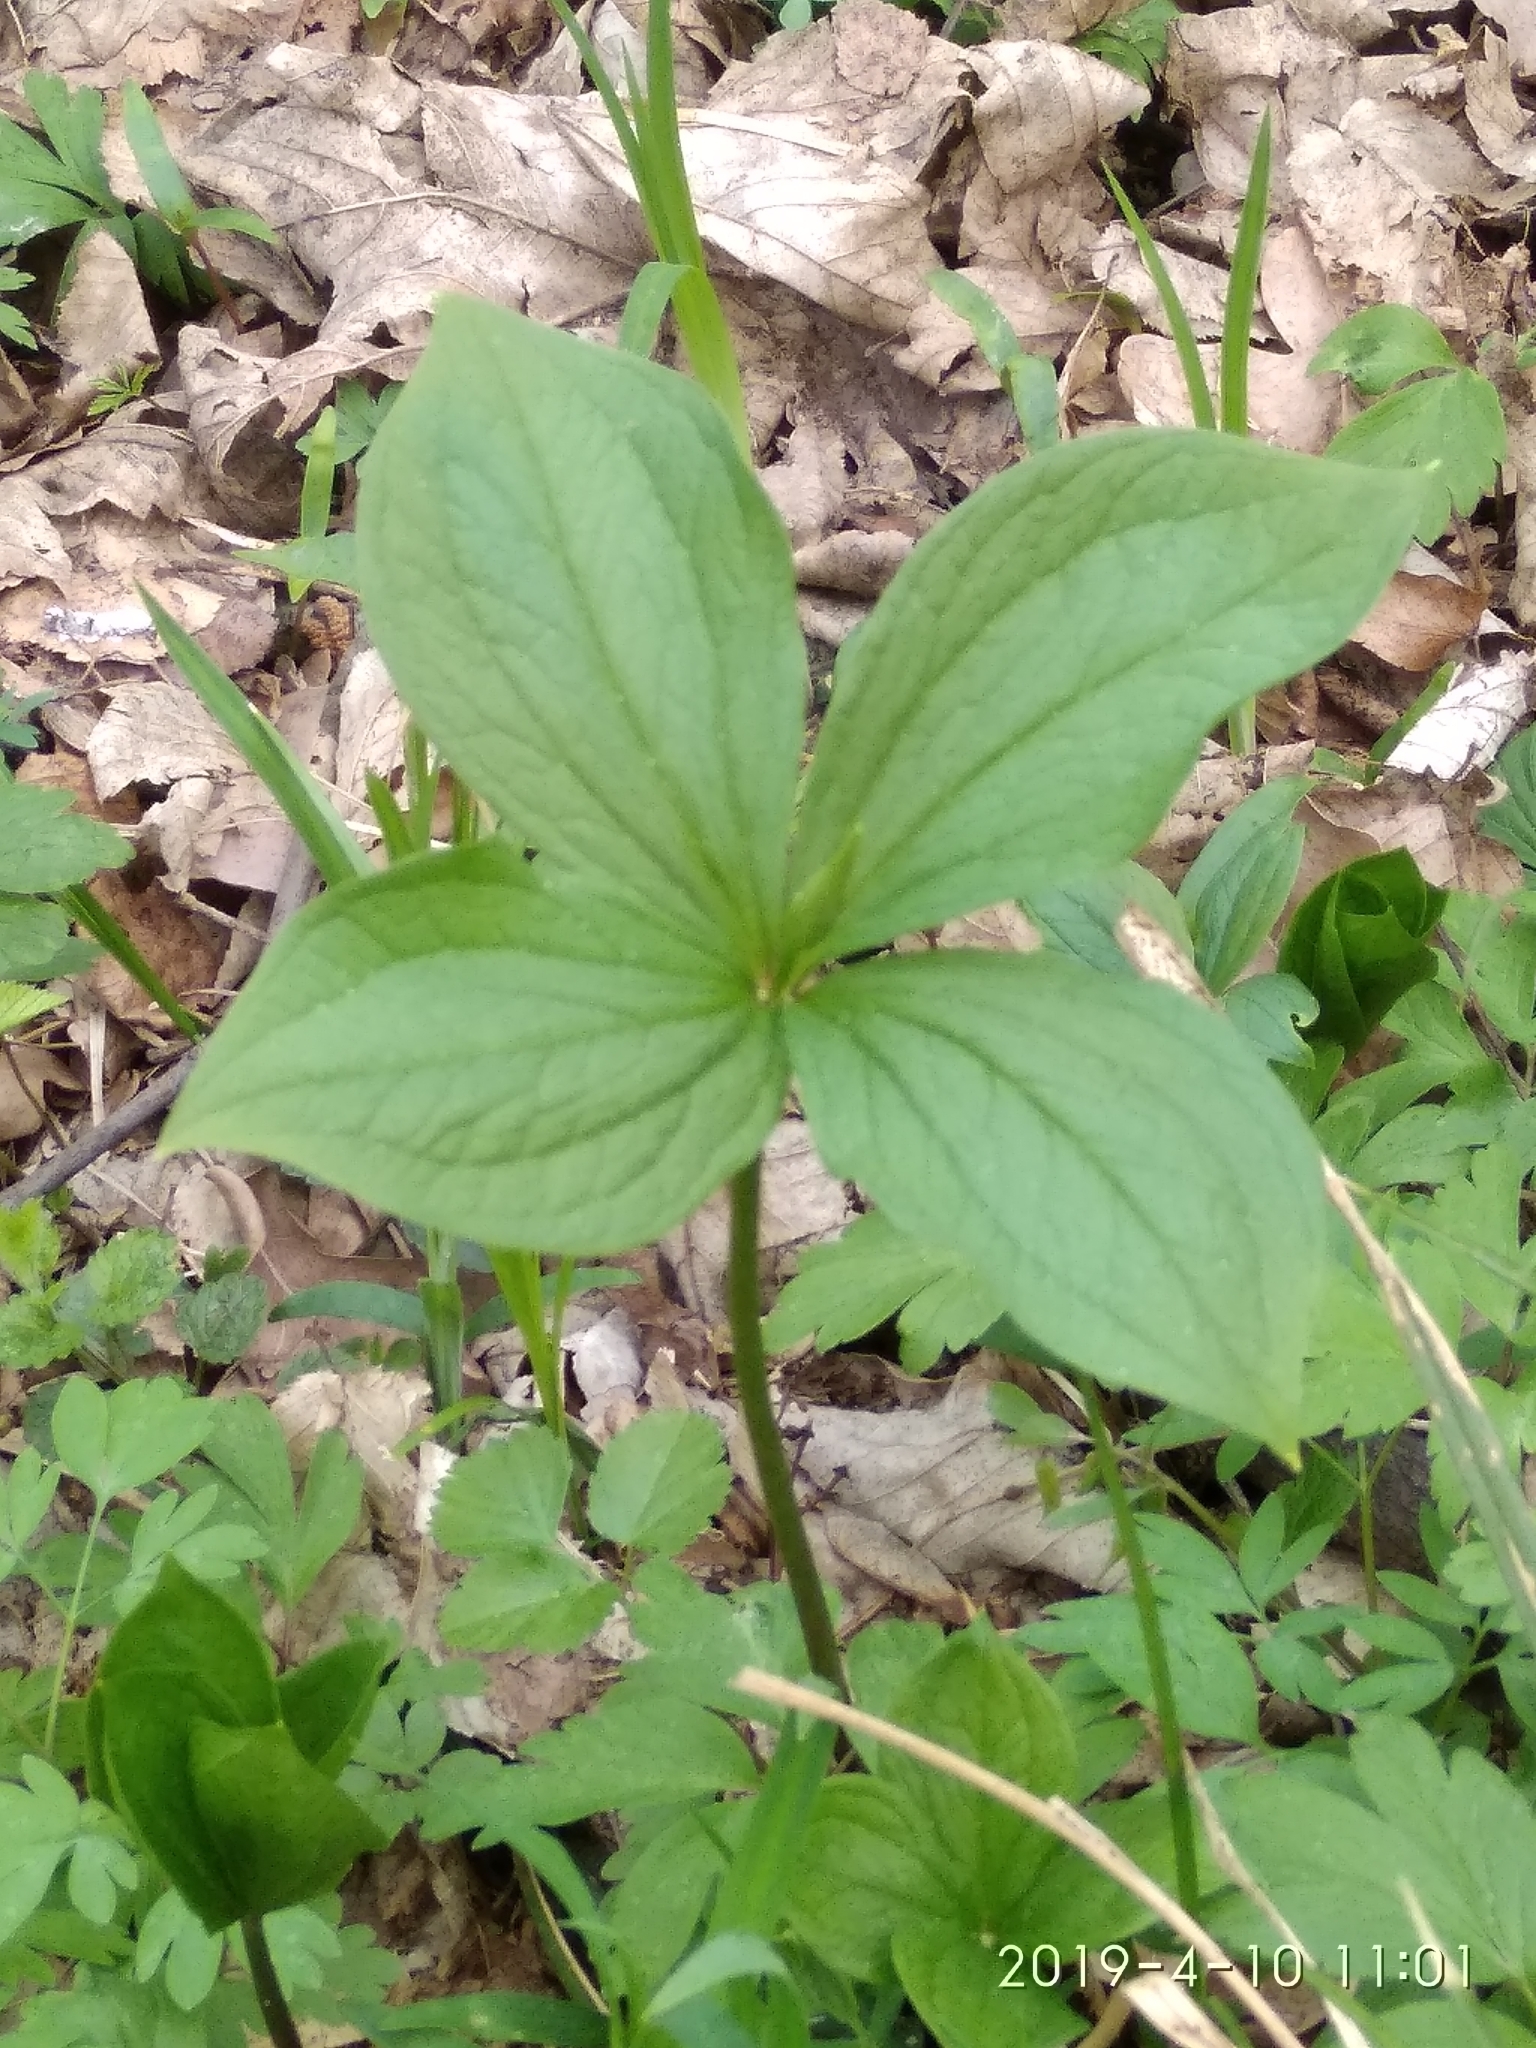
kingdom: Plantae
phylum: Tracheophyta
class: Liliopsida
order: Liliales
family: Melanthiaceae
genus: Paris
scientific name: Paris quadrifolia
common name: Herb-paris
